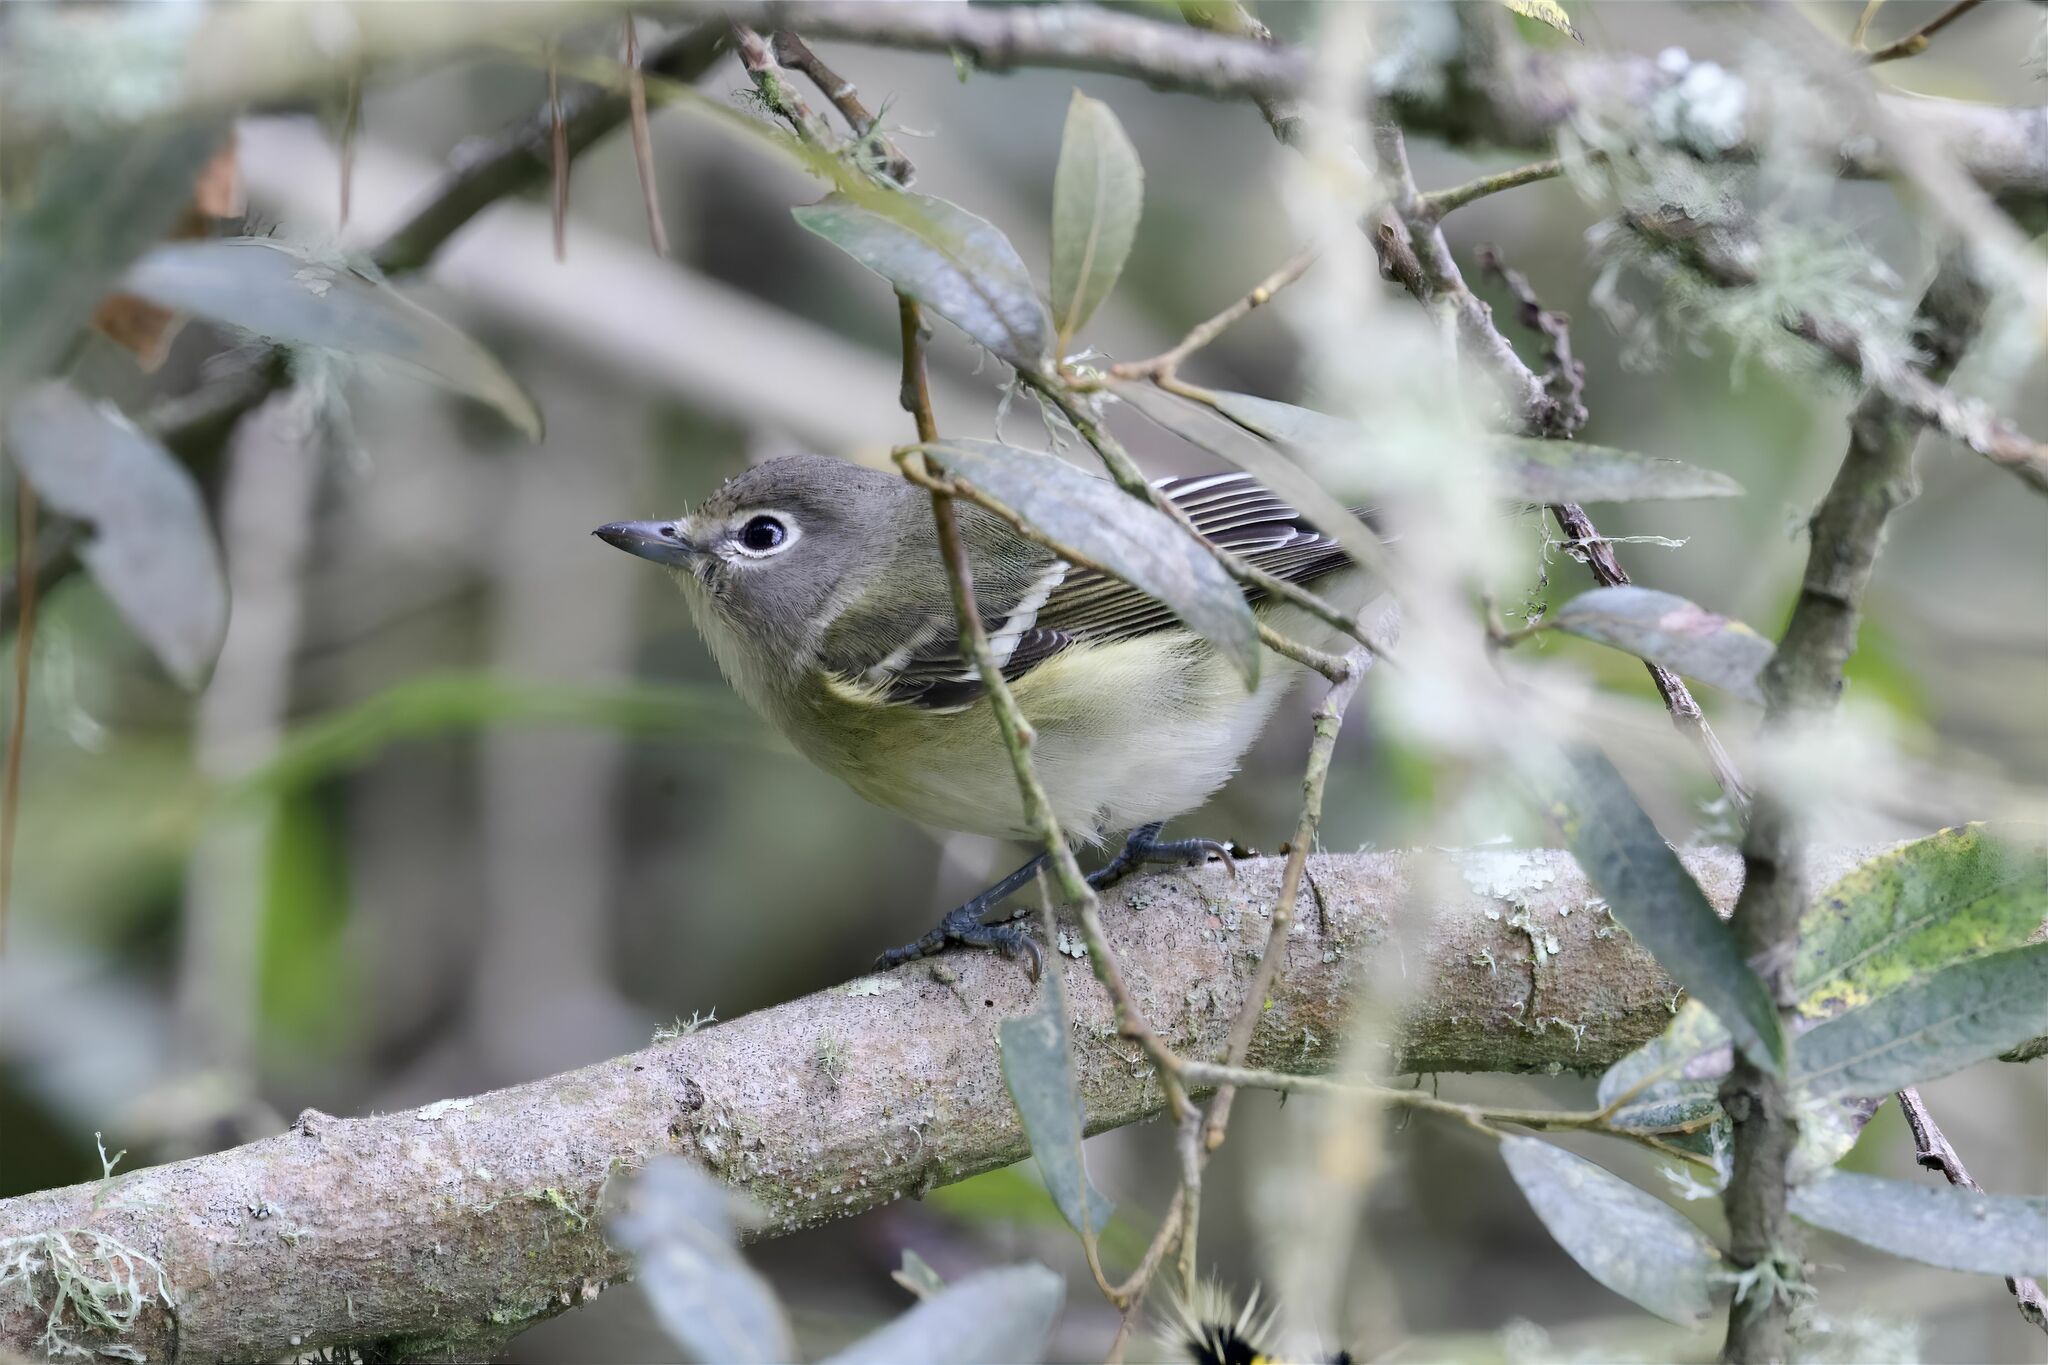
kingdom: Animalia
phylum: Chordata
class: Aves
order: Passeriformes
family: Vireonidae
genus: Vireo
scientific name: Vireo cassinii
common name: Cassin's vireo
